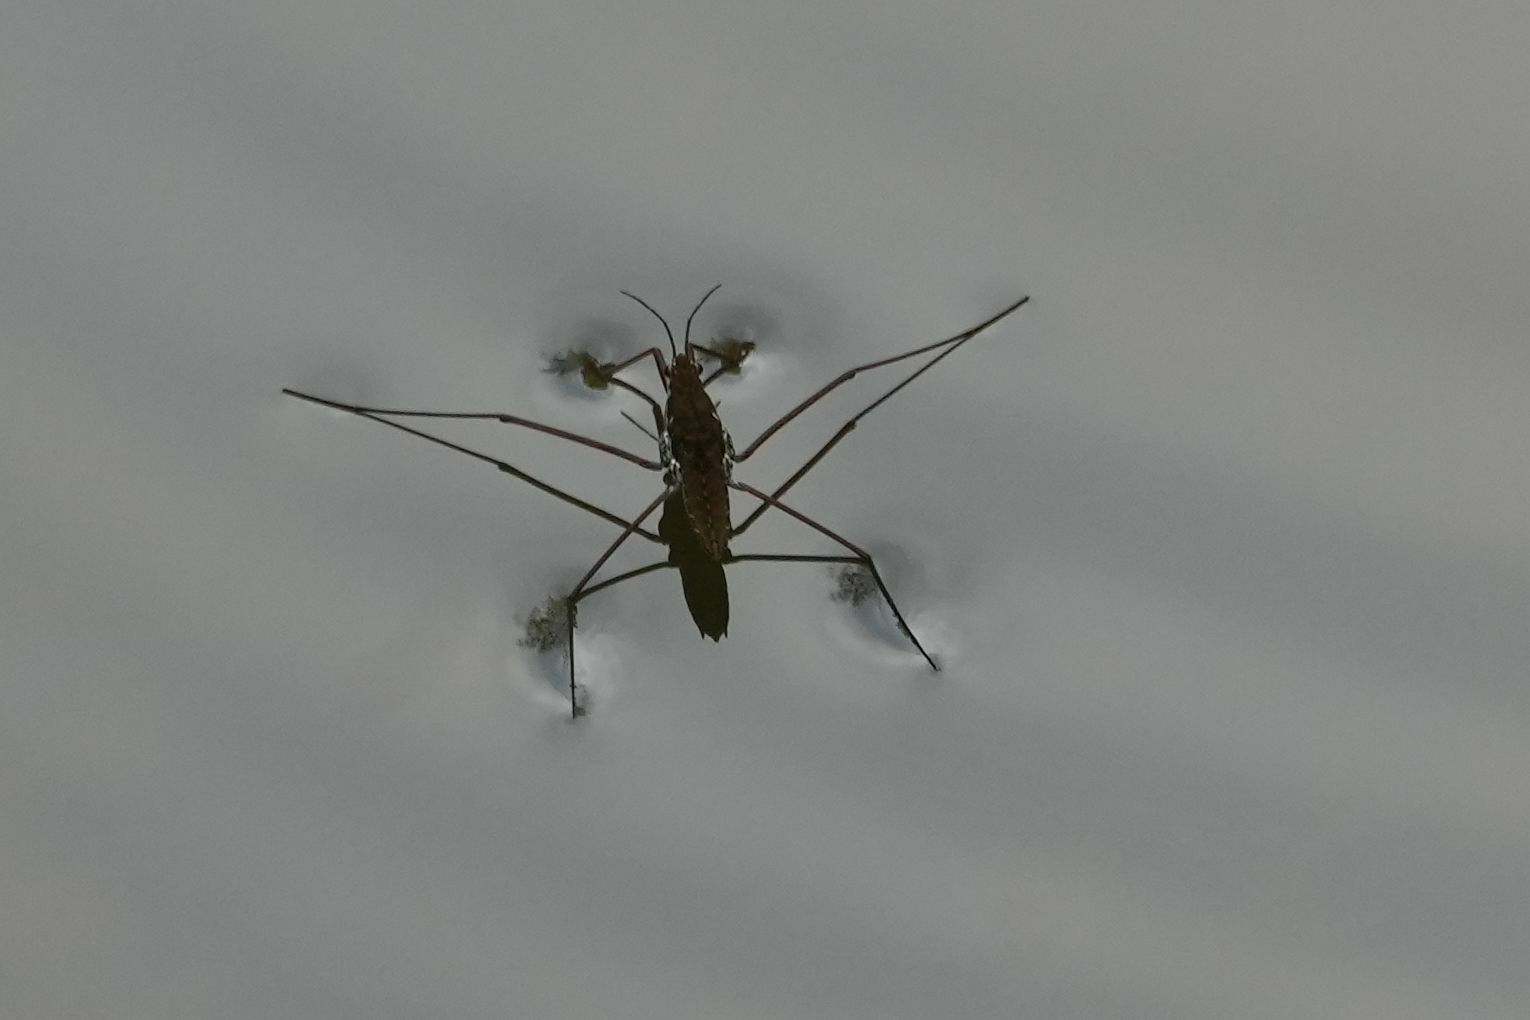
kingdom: Animalia
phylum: Arthropoda
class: Insecta
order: Hemiptera
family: Gerridae
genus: Aquarius
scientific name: Aquarius remigis
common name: Common water strider
